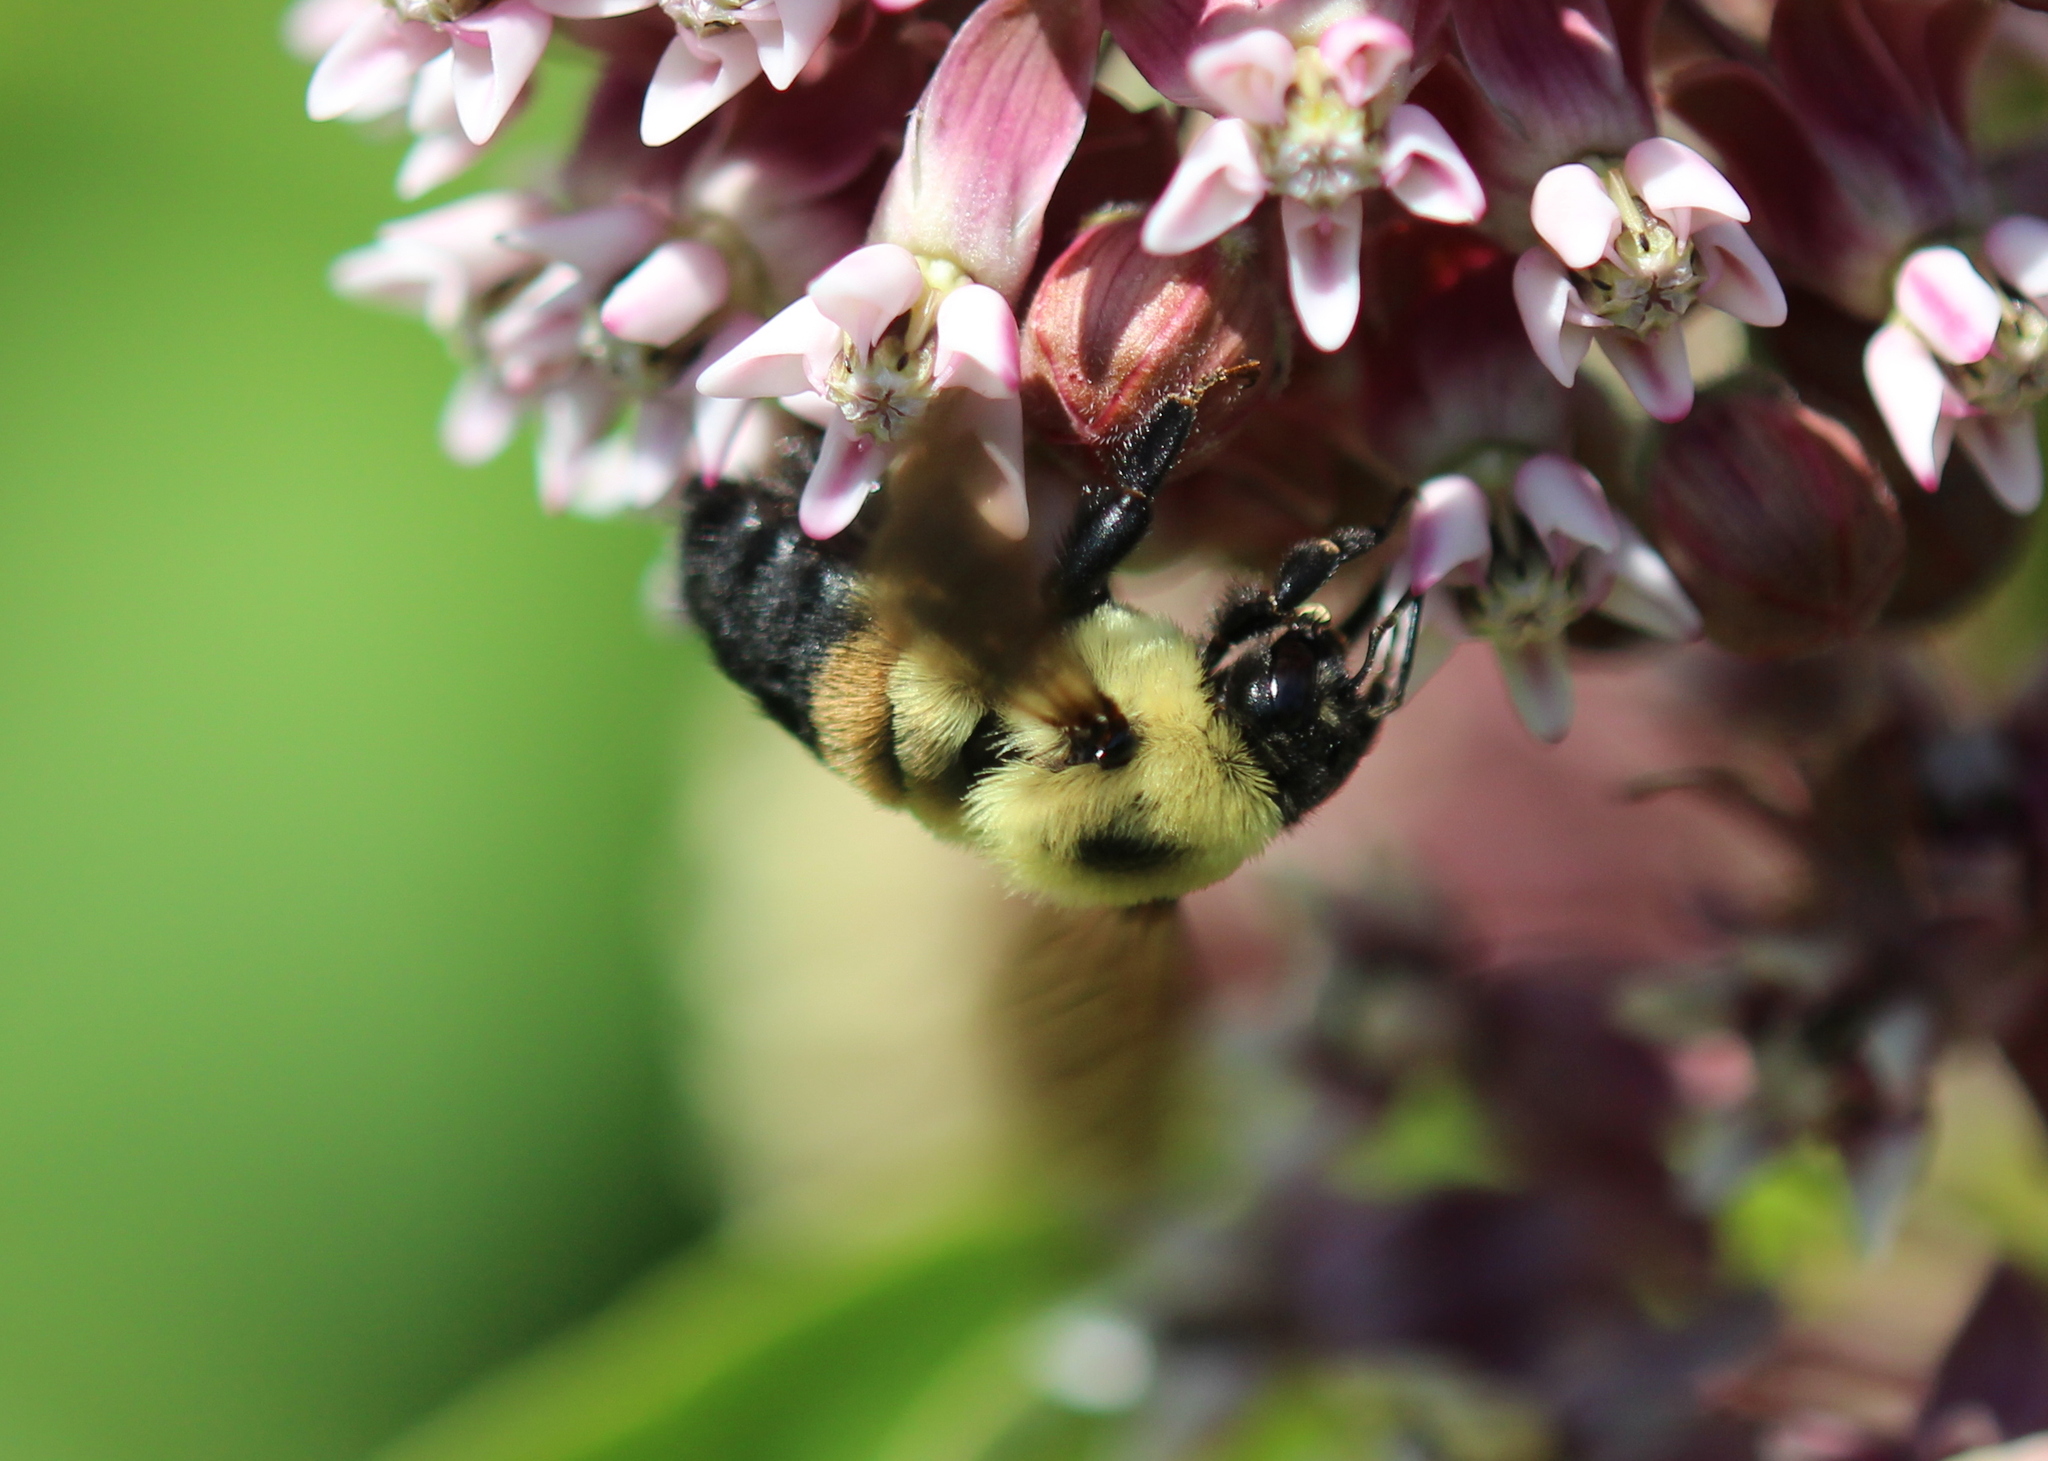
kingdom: Animalia
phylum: Arthropoda
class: Insecta
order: Hymenoptera
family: Apidae
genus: Bombus
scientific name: Bombus griseocollis
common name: Brown-belted bumble bee
